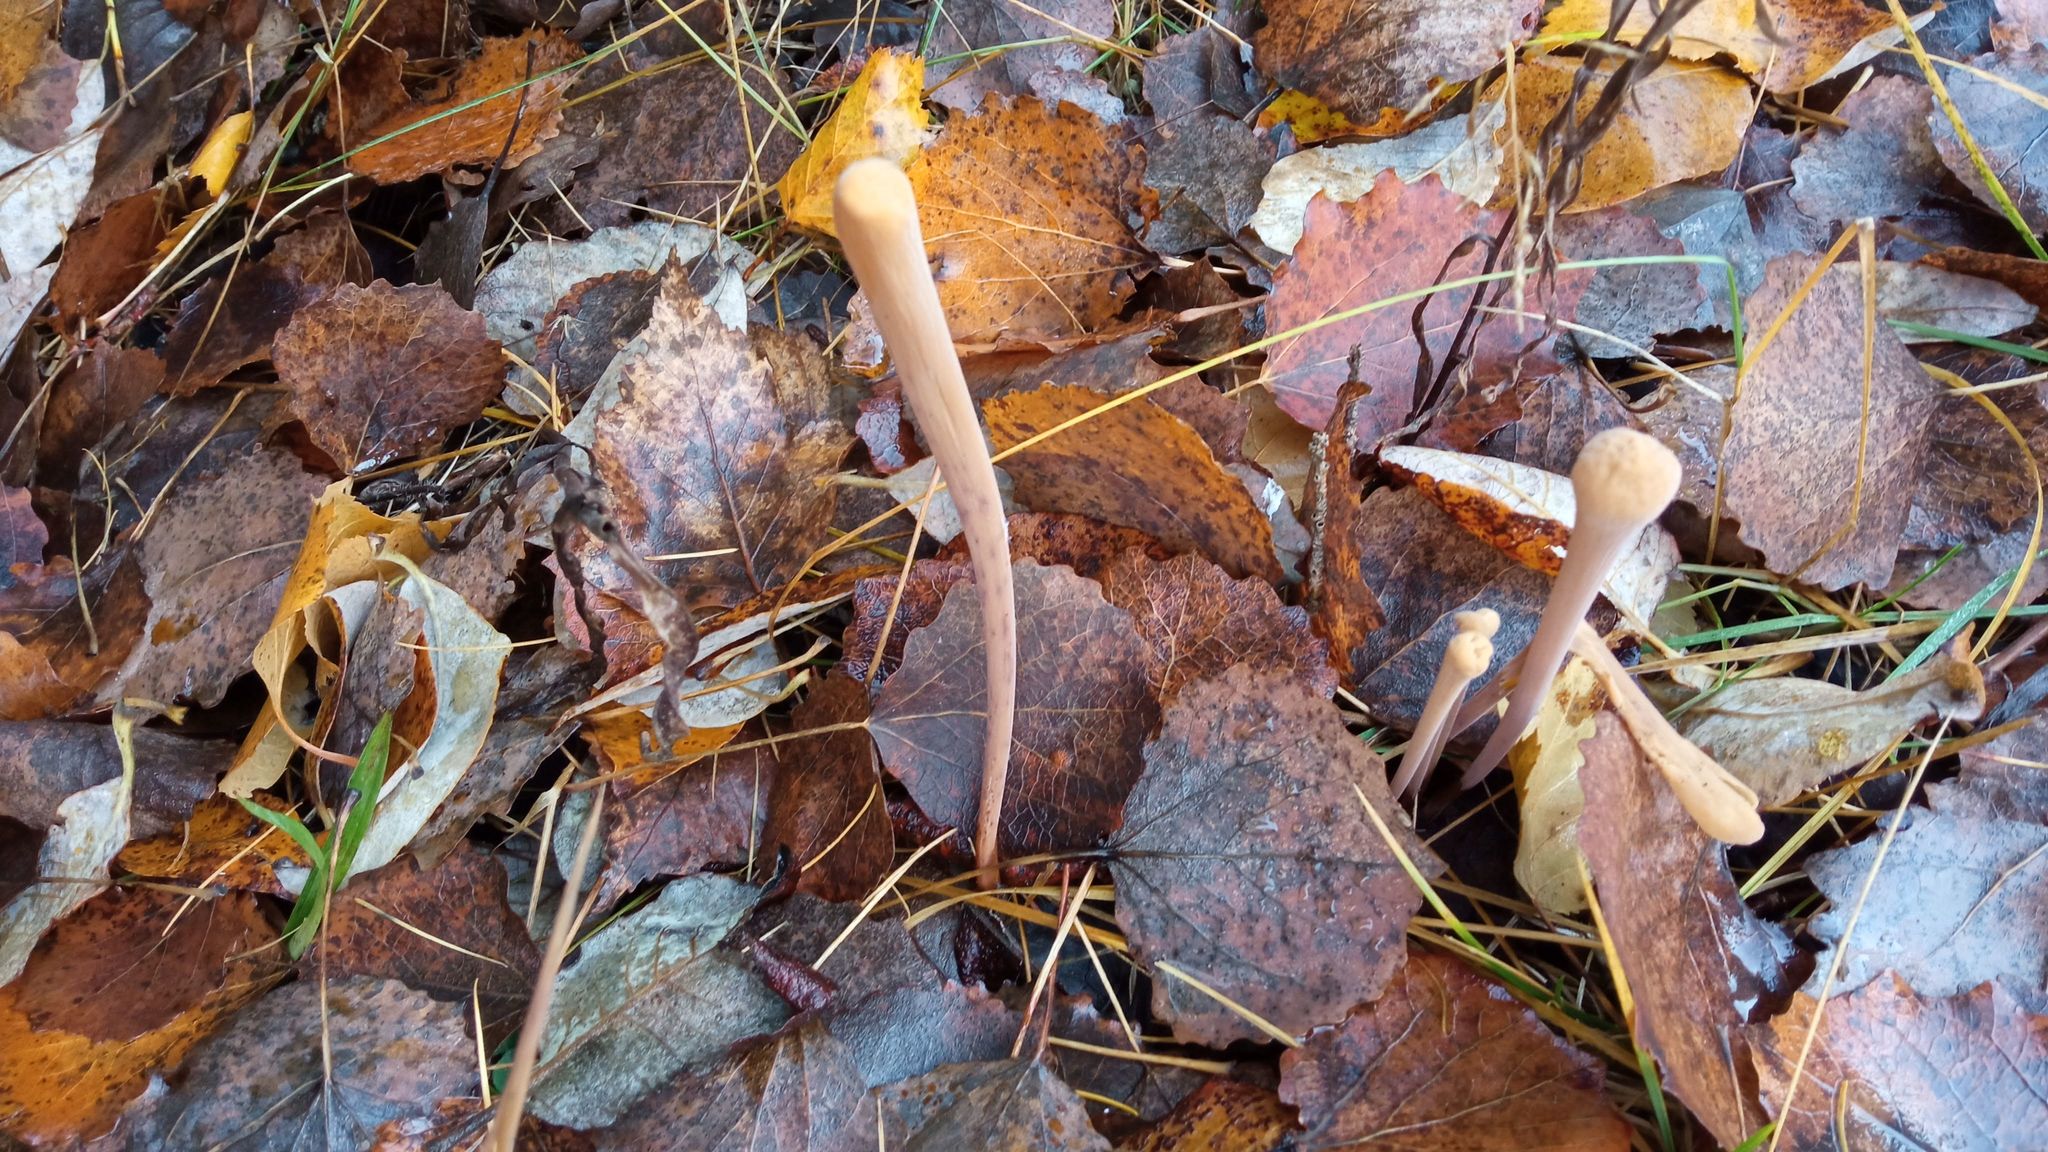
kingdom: Fungi
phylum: Basidiomycota
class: Agaricomycetes
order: Agaricales
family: Typhulaceae
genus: Typhula
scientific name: Typhula fistulosa
